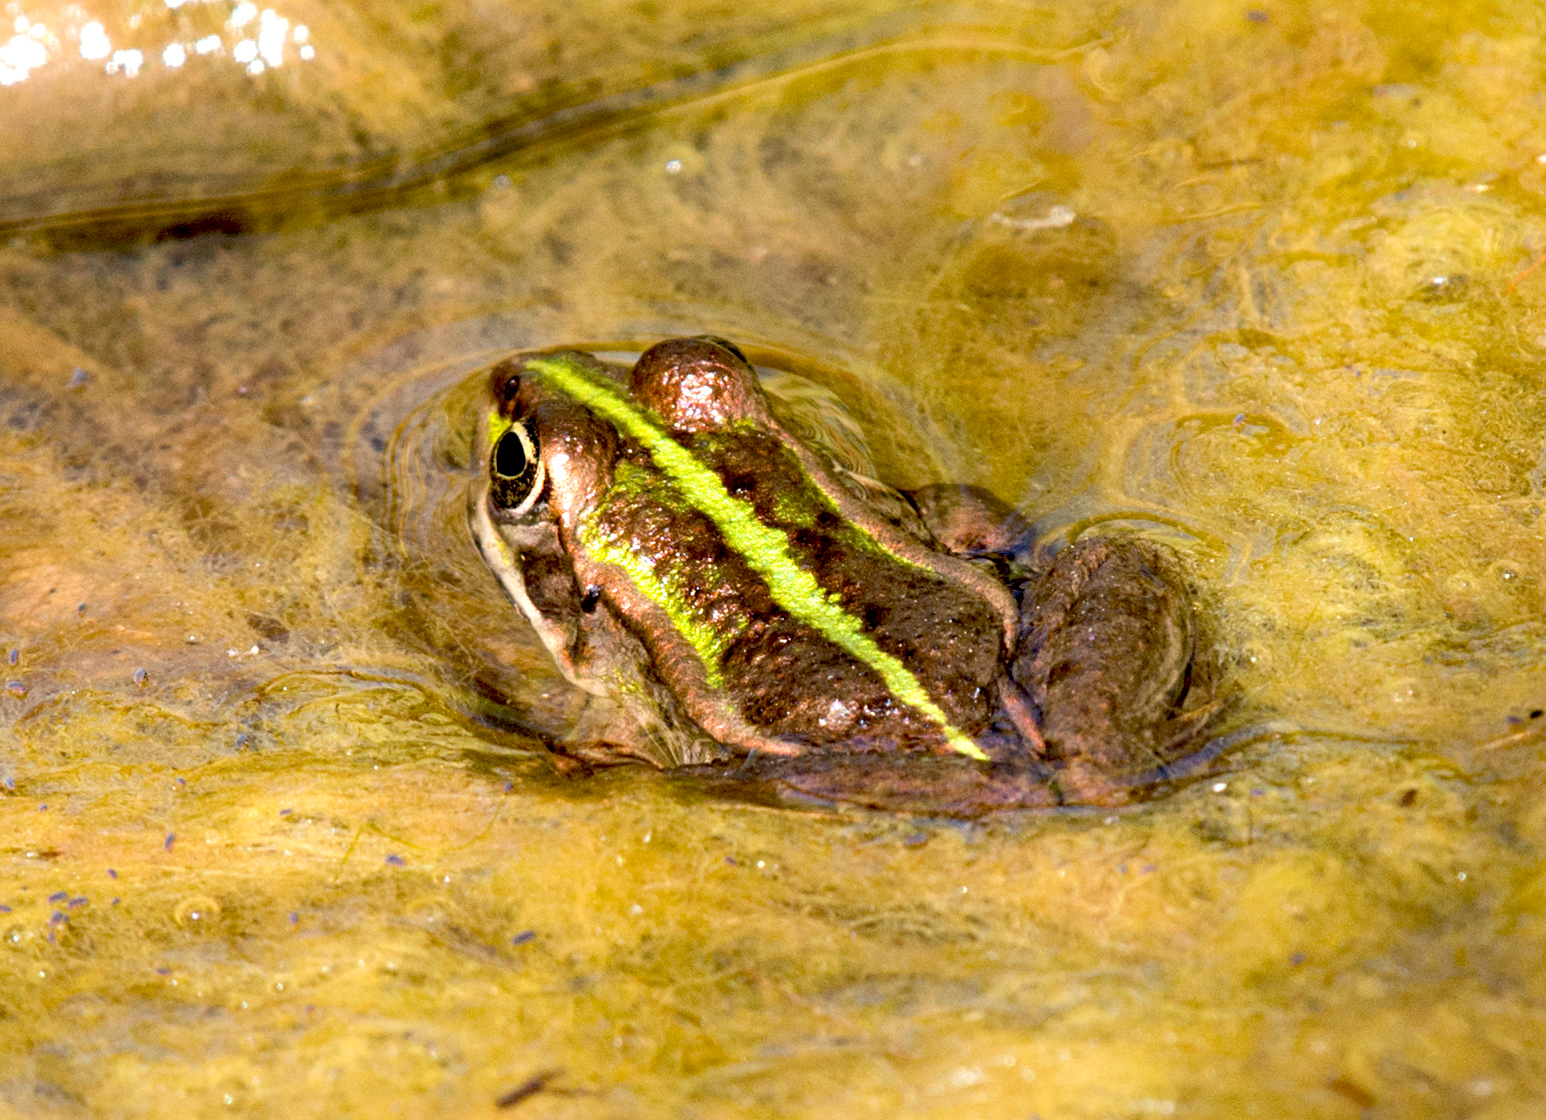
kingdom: Animalia
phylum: Chordata
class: Amphibia
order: Anura
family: Ranidae
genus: Pelophylax
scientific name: Pelophylax
